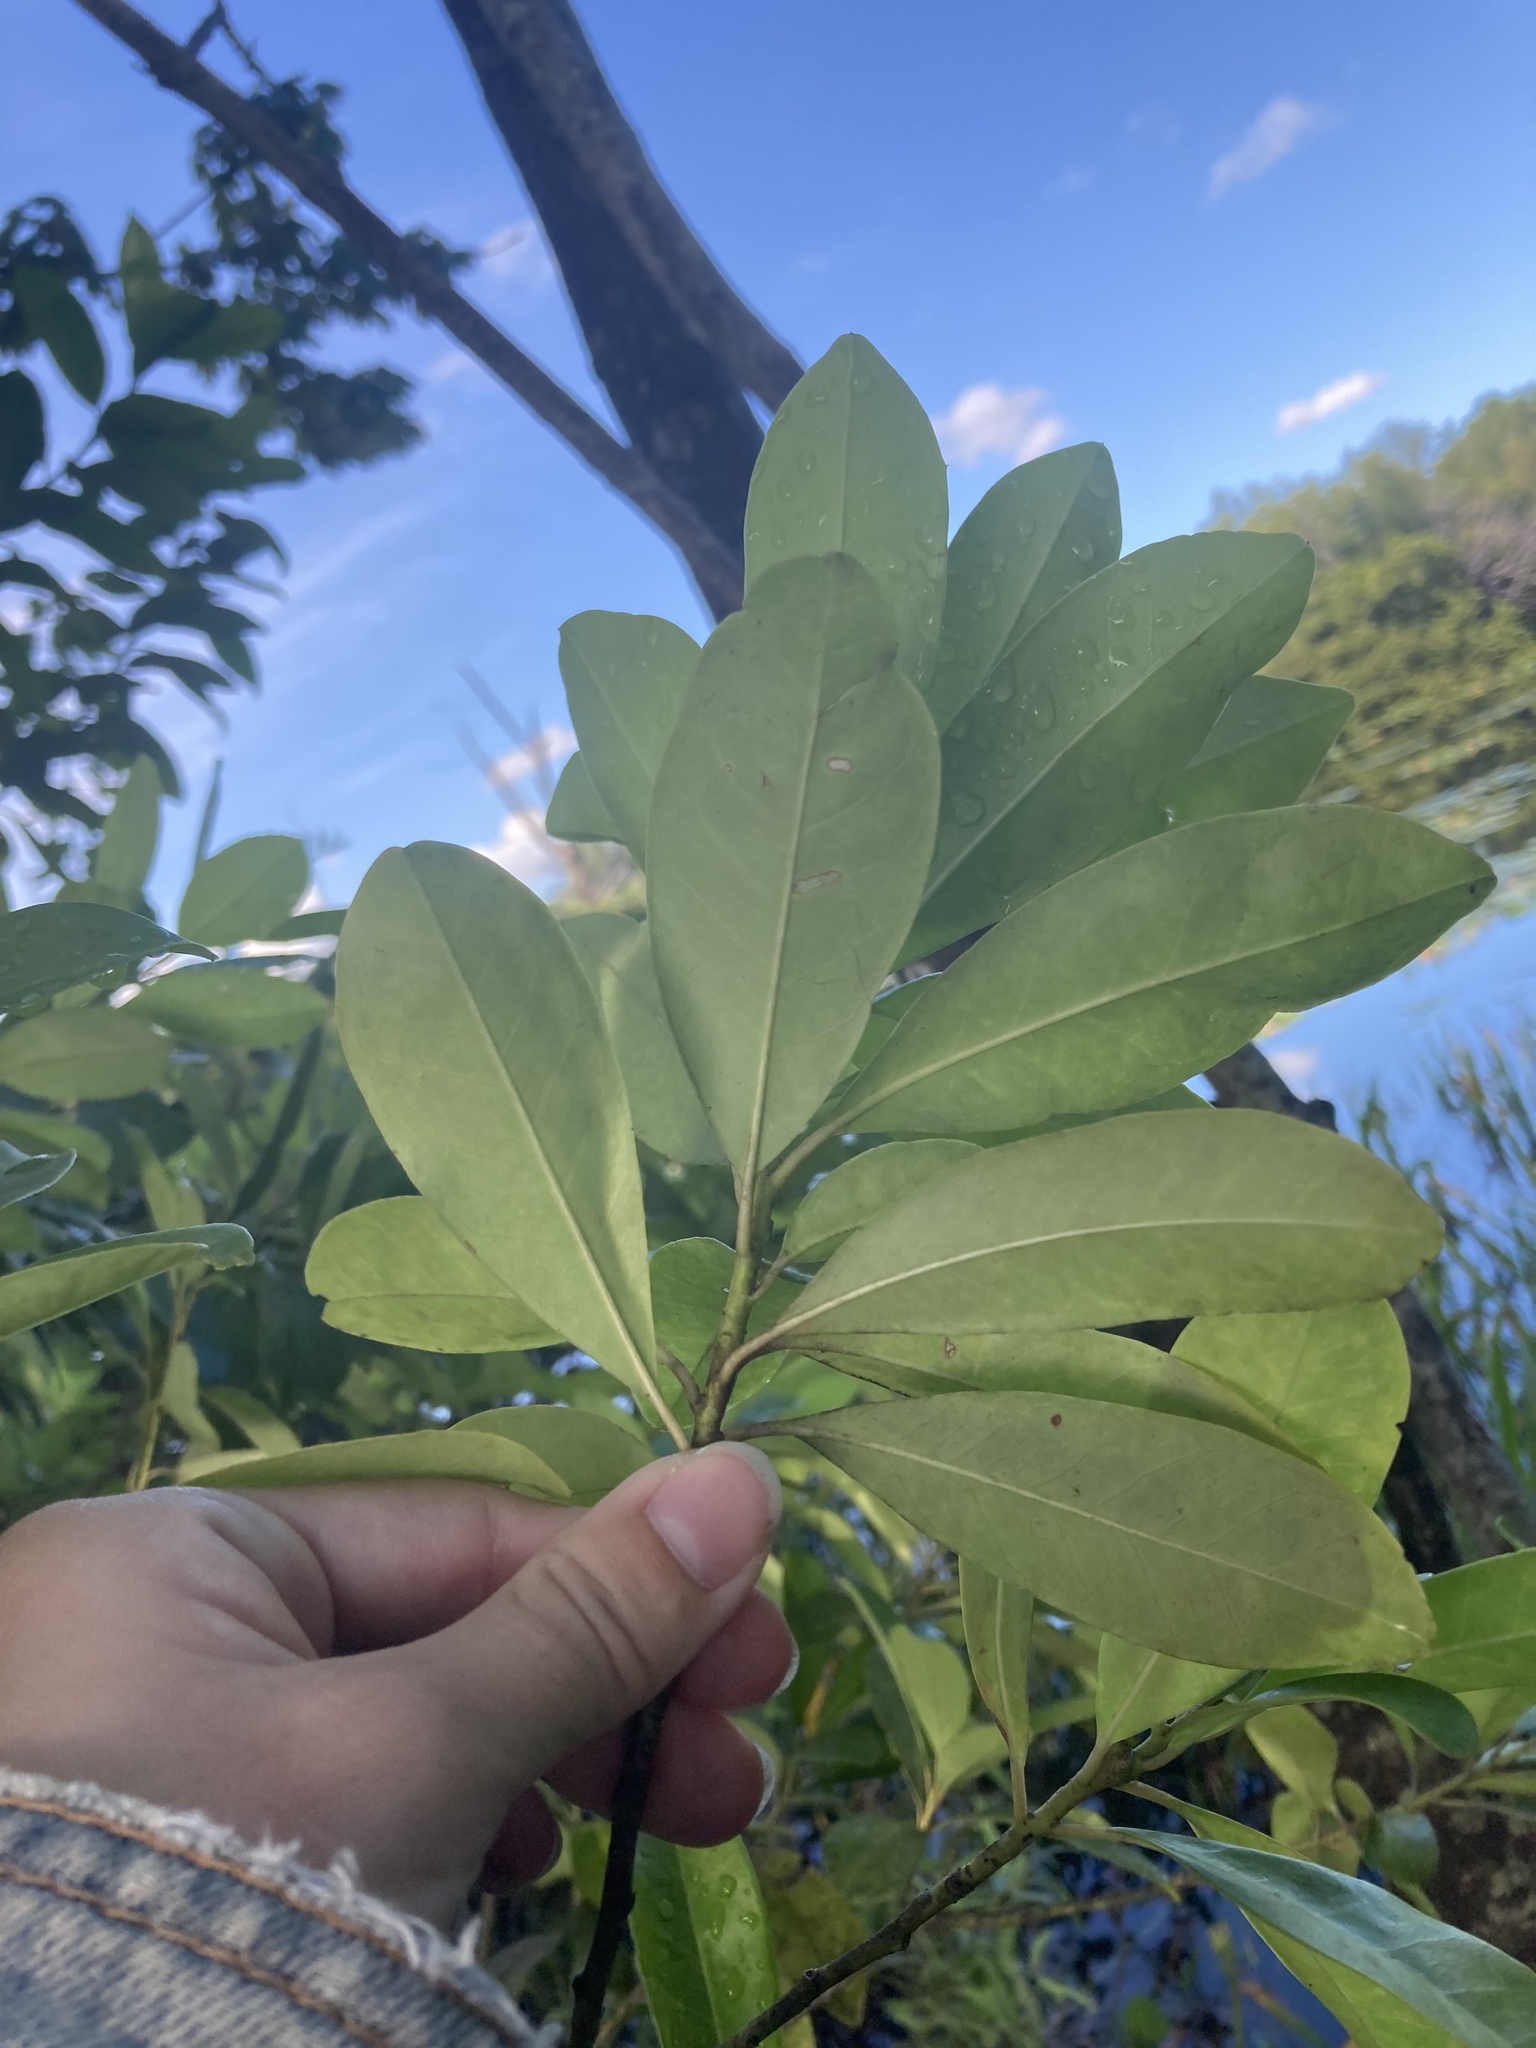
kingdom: Plantae
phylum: Tracheophyta
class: Magnoliopsida
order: Aquifoliales
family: Aquifoliaceae
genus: Ilex
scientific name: Ilex cassine
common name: Dahoon
